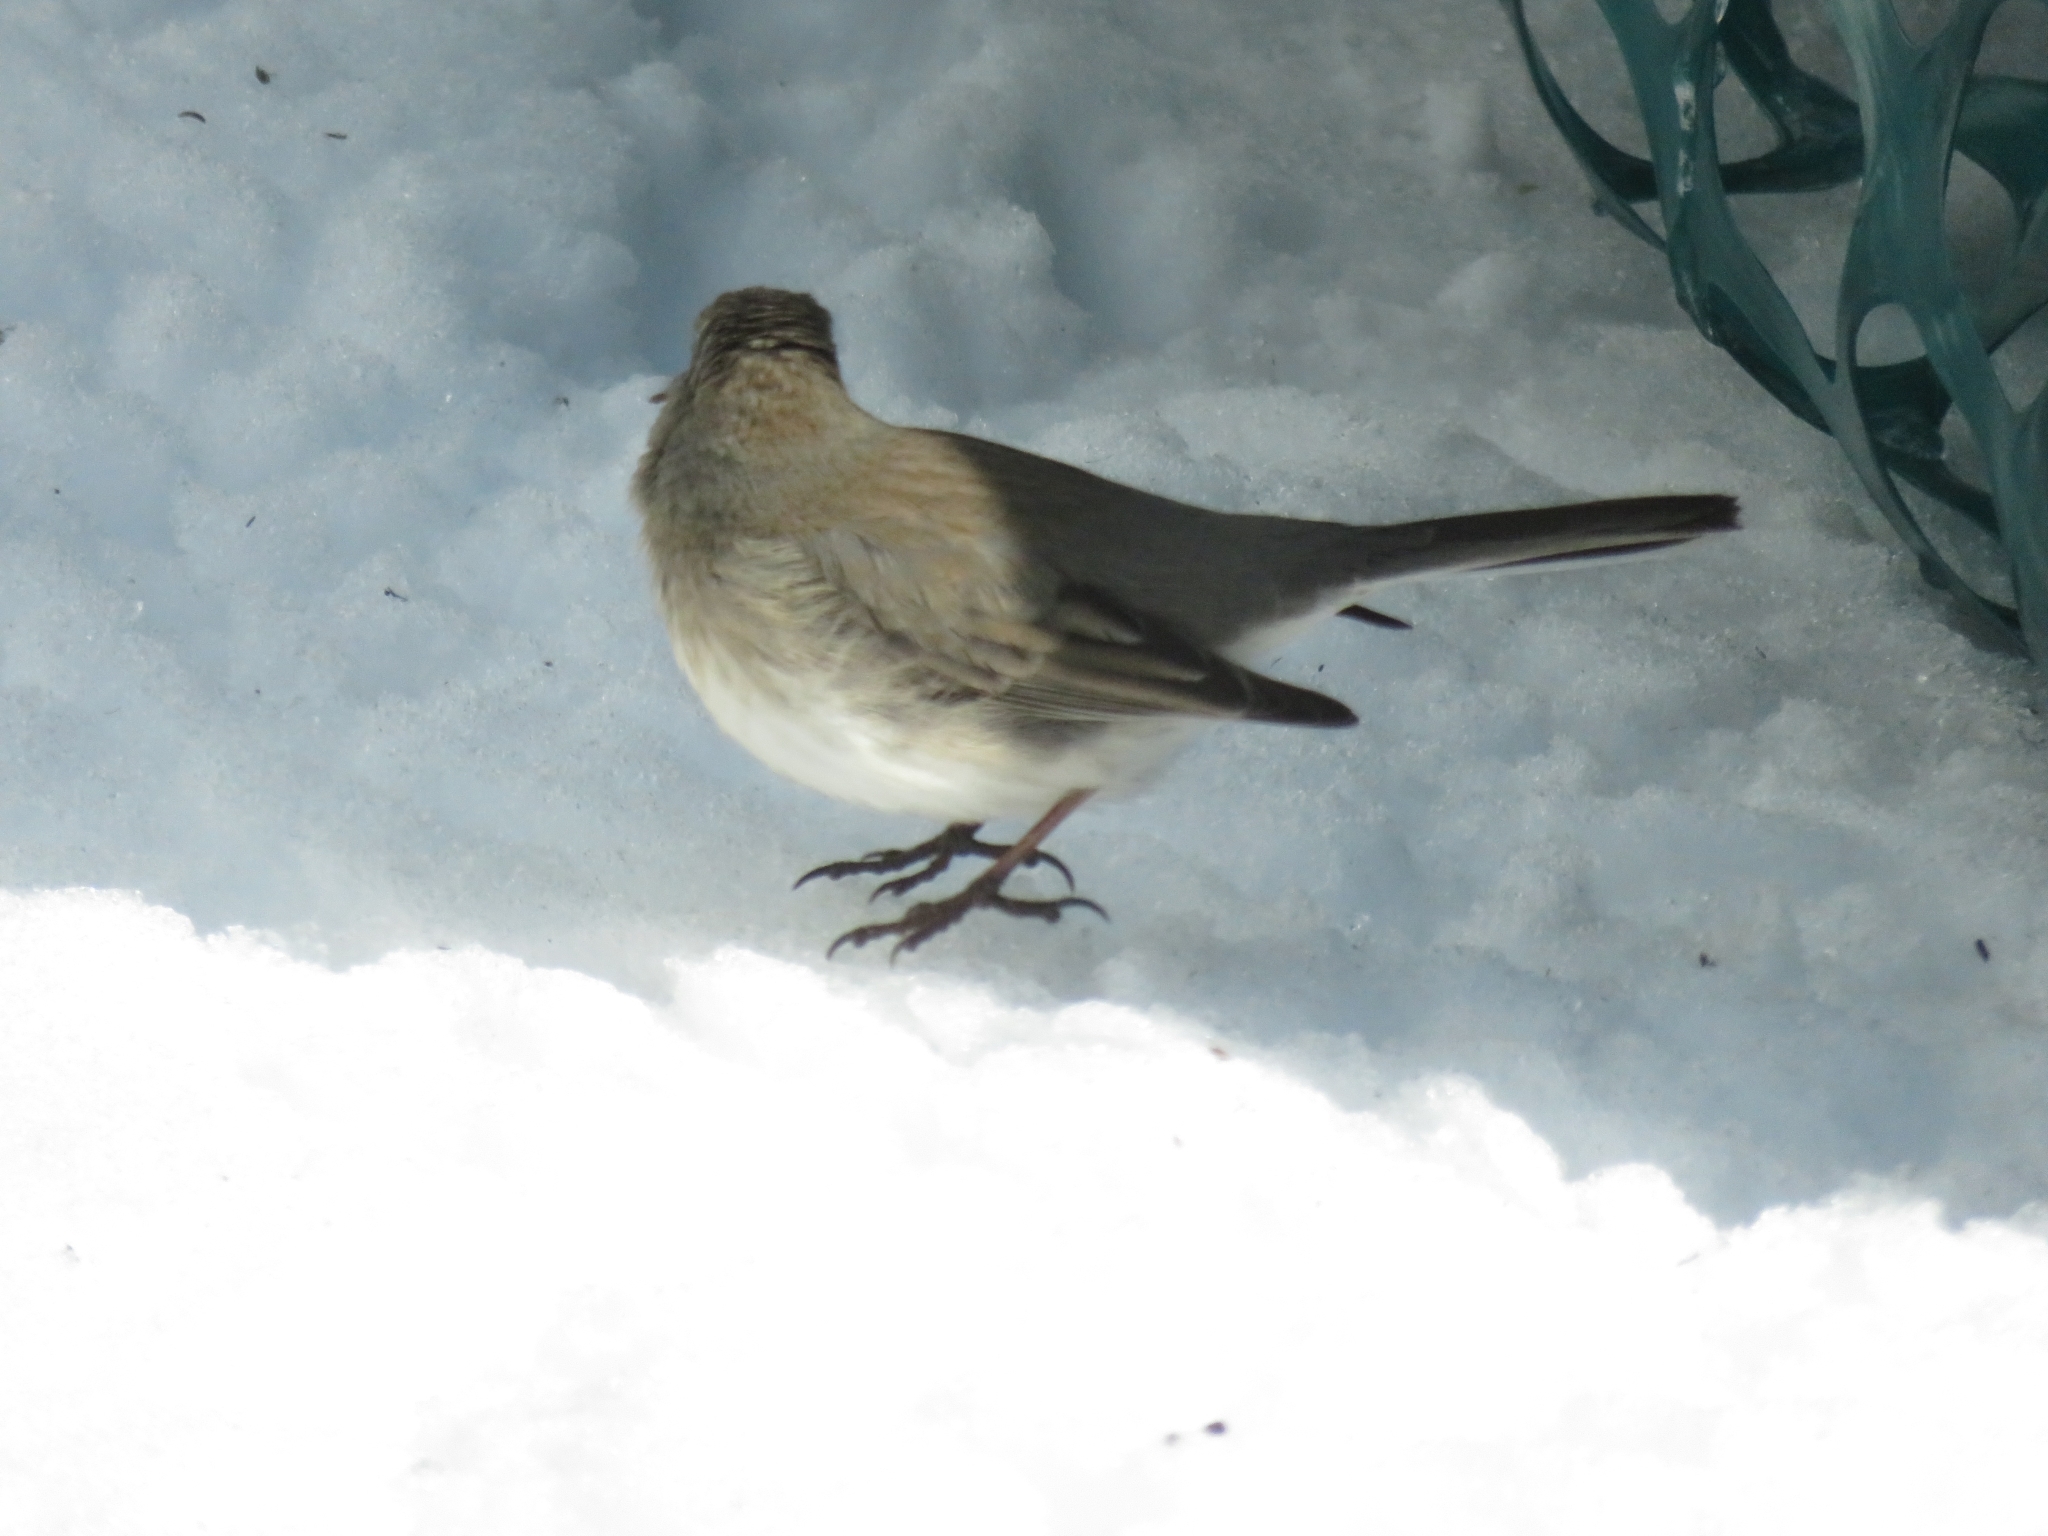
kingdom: Animalia
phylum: Chordata
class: Aves
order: Passeriformes
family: Passerellidae
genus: Junco
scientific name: Junco hyemalis
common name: Dark-eyed junco
